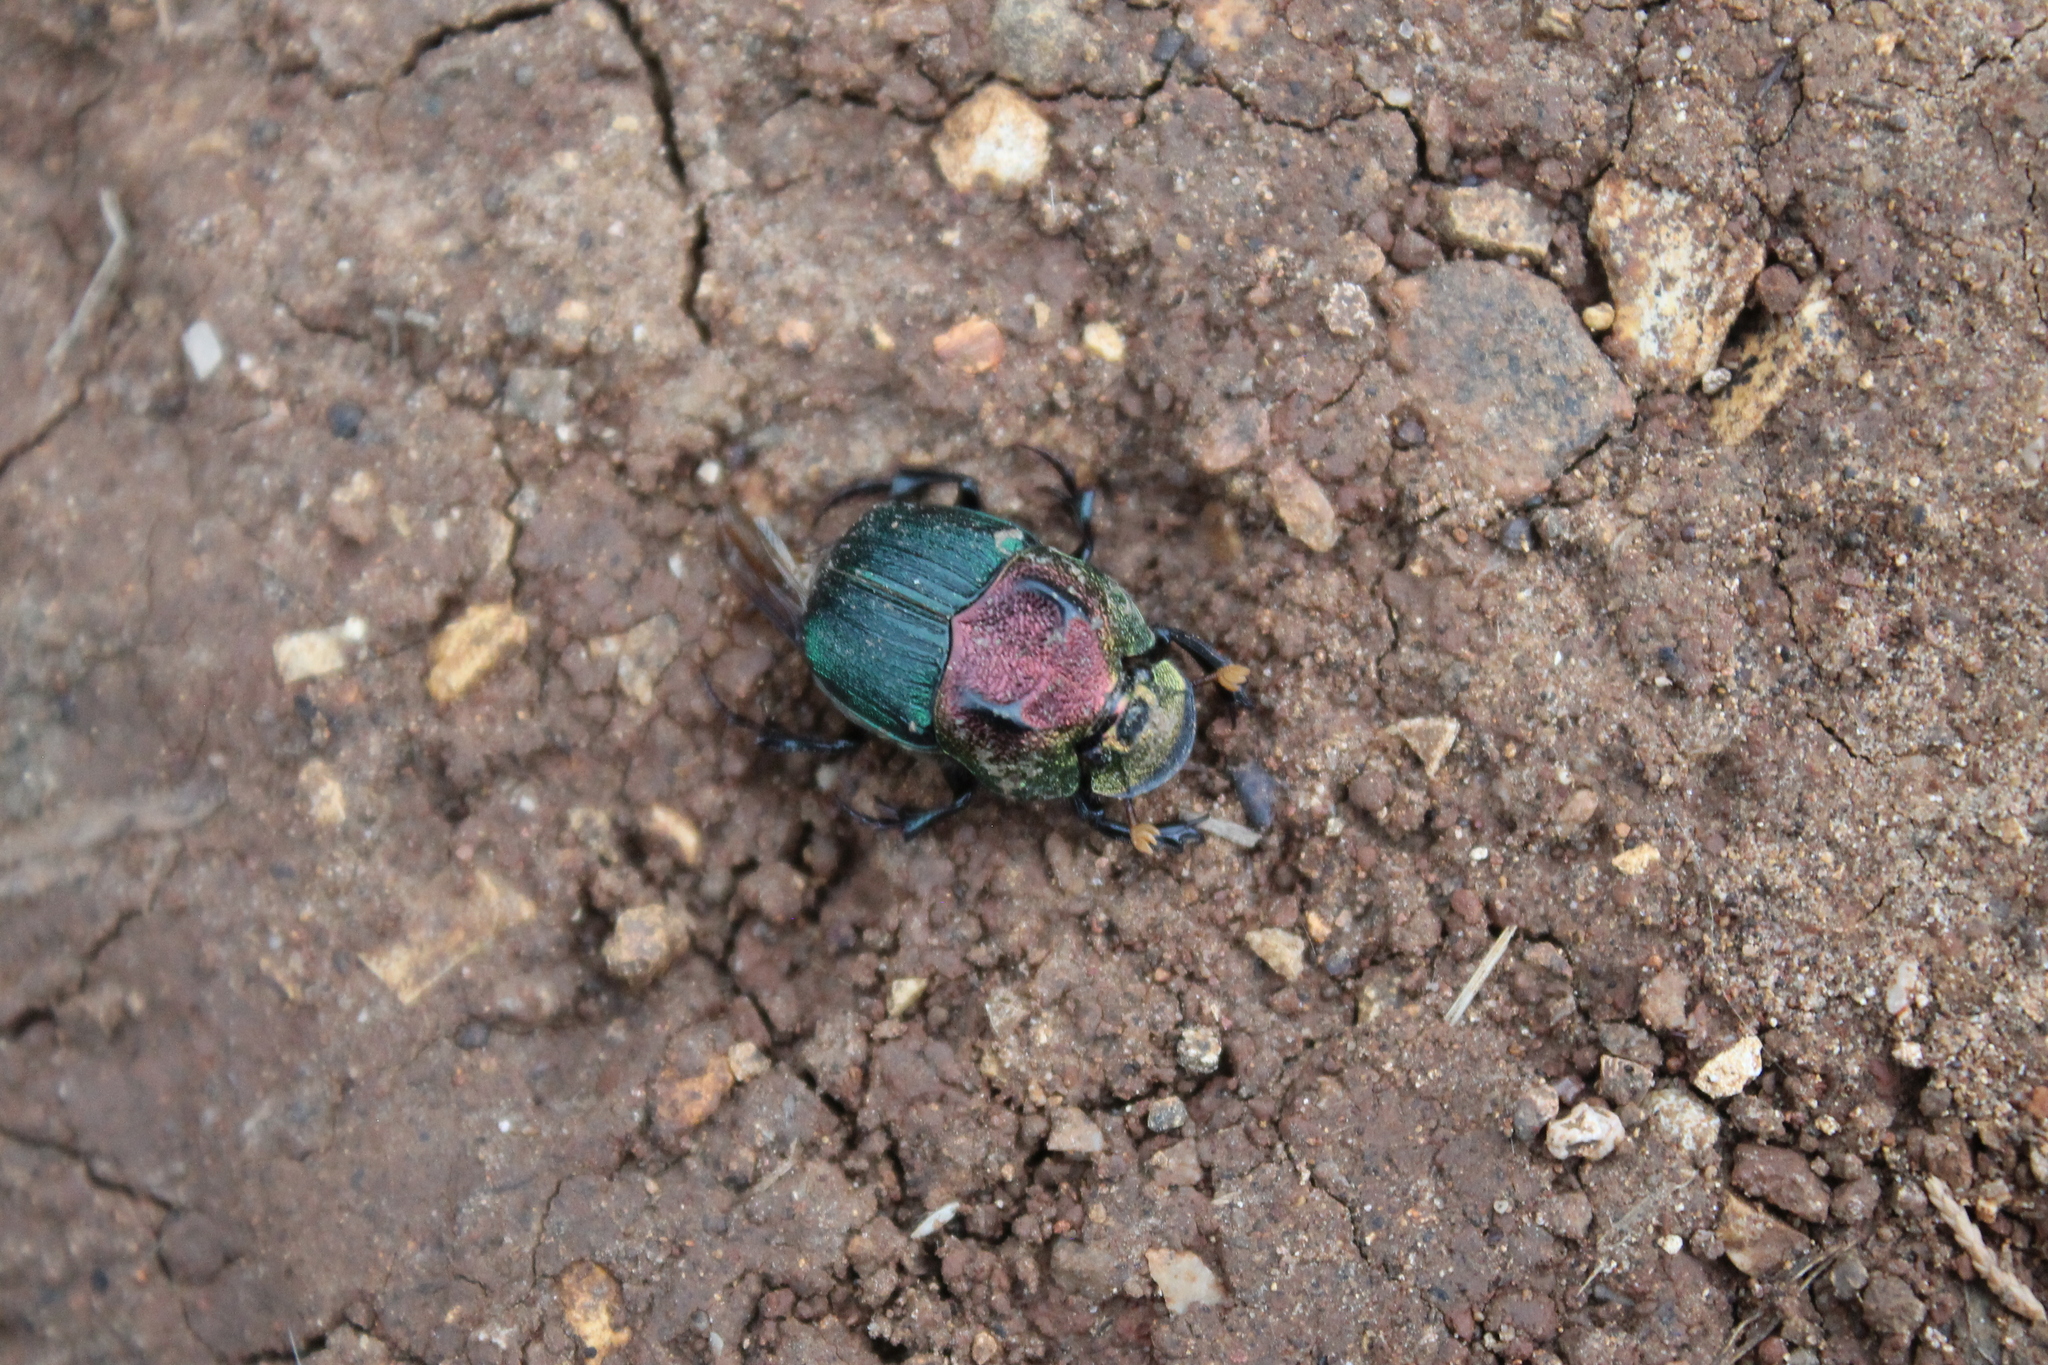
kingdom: Animalia
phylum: Arthropoda
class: Insecta
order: Coleoptera
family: Scarabaeidae
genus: Phanaeus
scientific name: Phanaeus vindex
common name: Rainbow scarab
